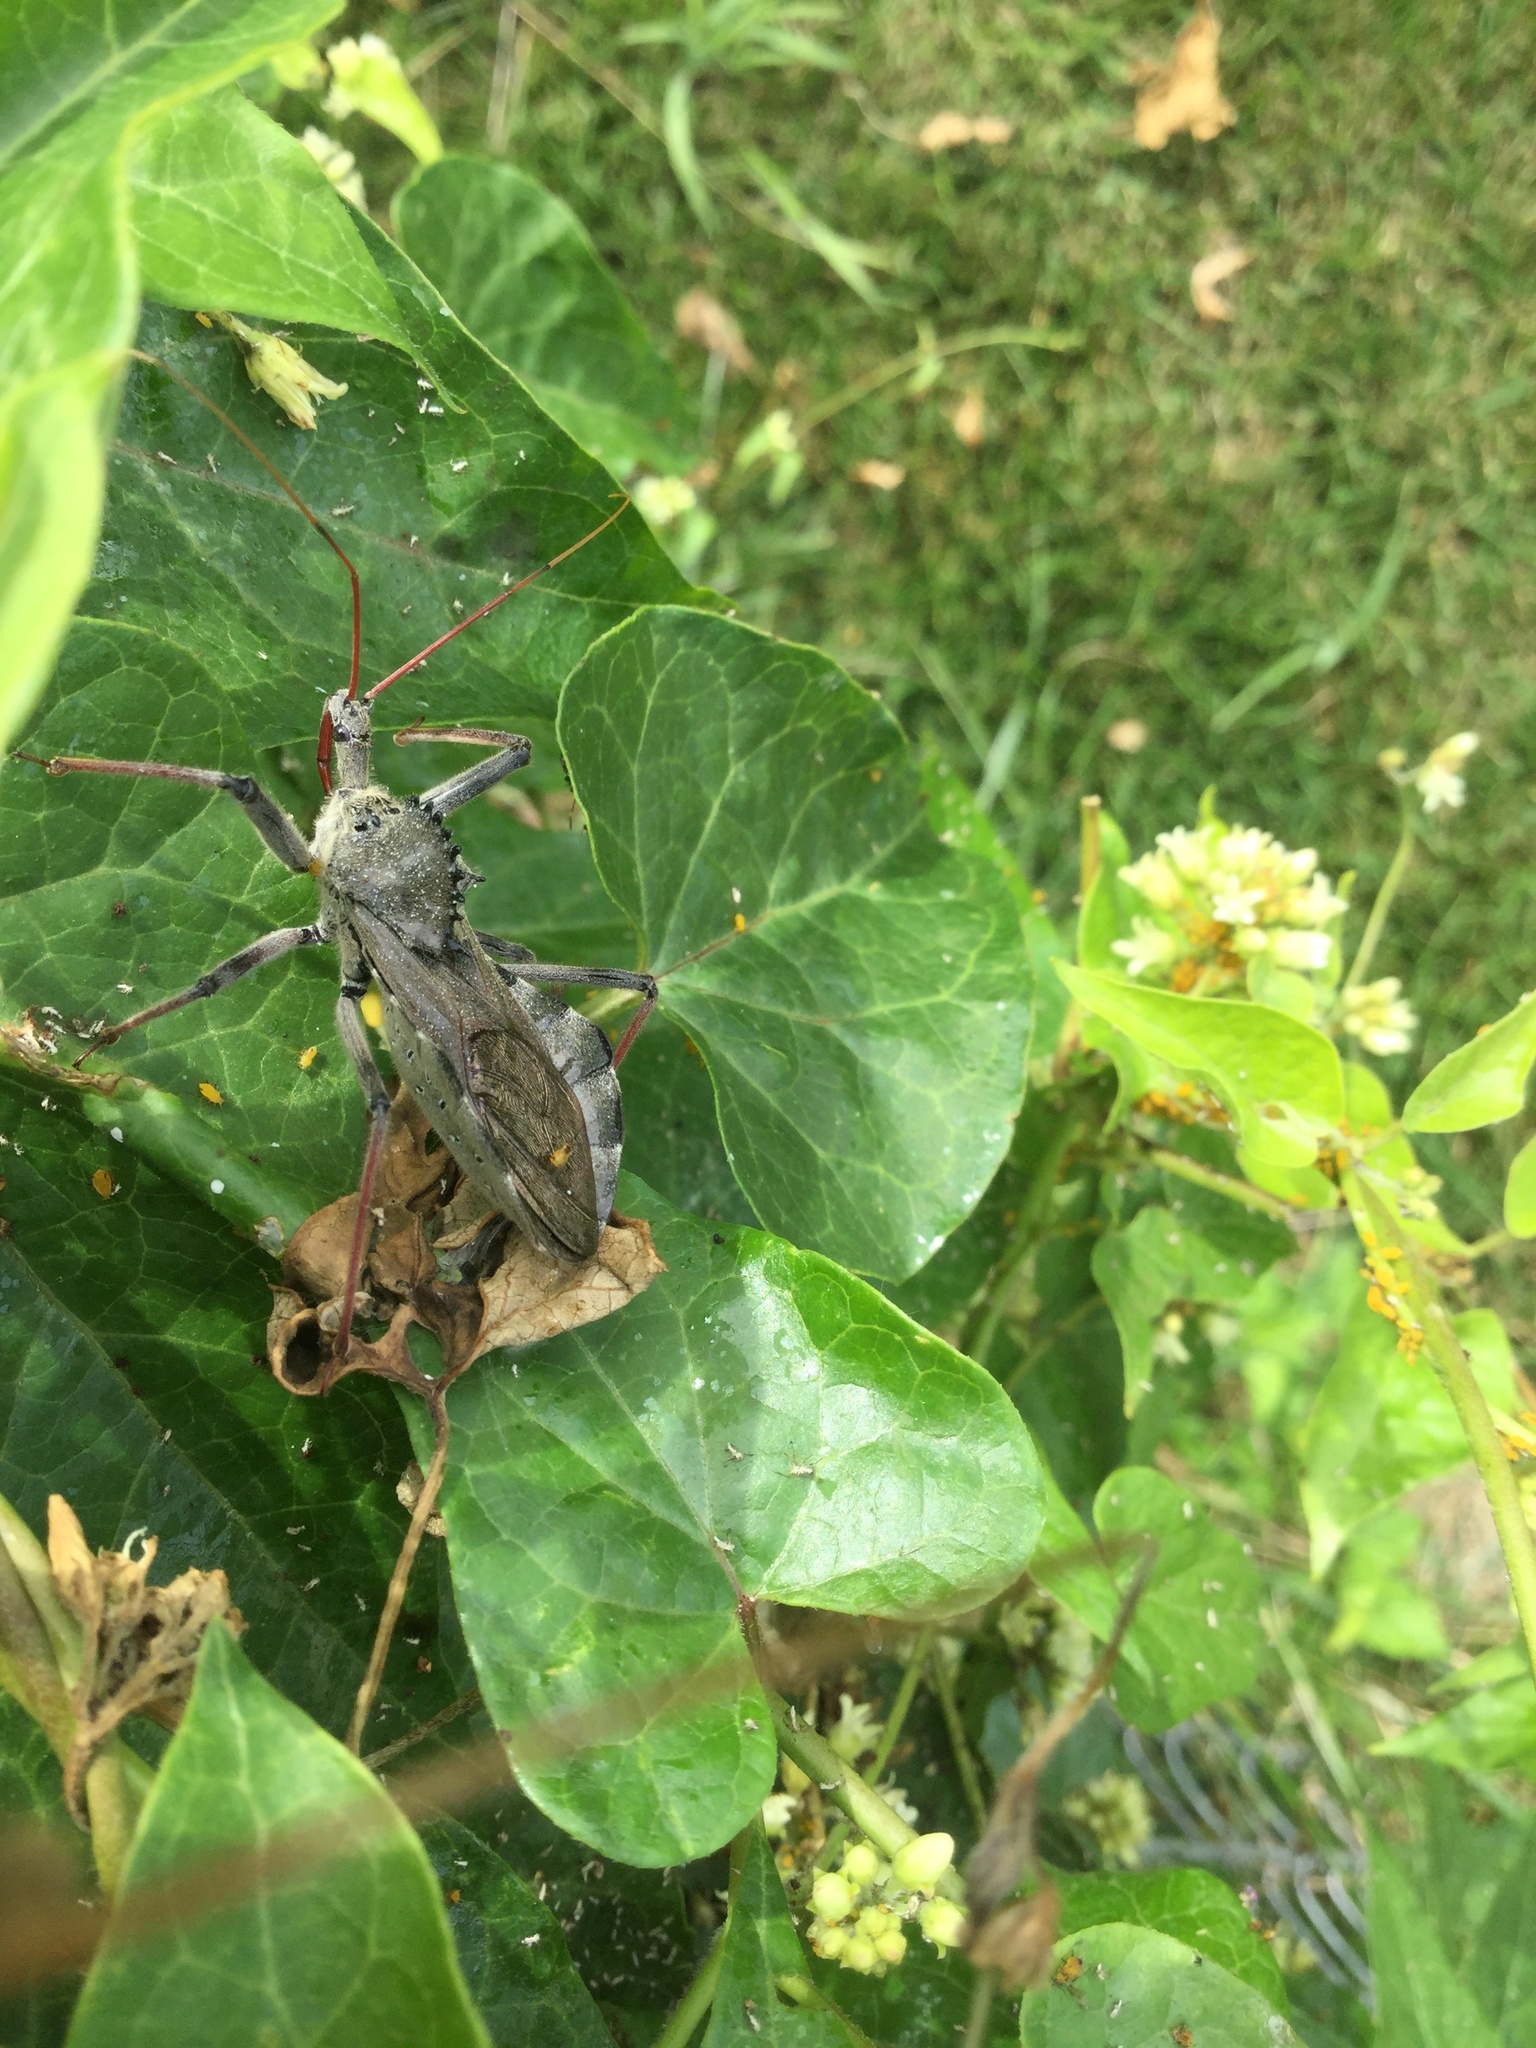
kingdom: Animalia
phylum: Arthropoda
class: Insecta
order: Hemiptera
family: Reduviidae
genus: Arilus
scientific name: Arilus cristatus
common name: North american wheel bug
